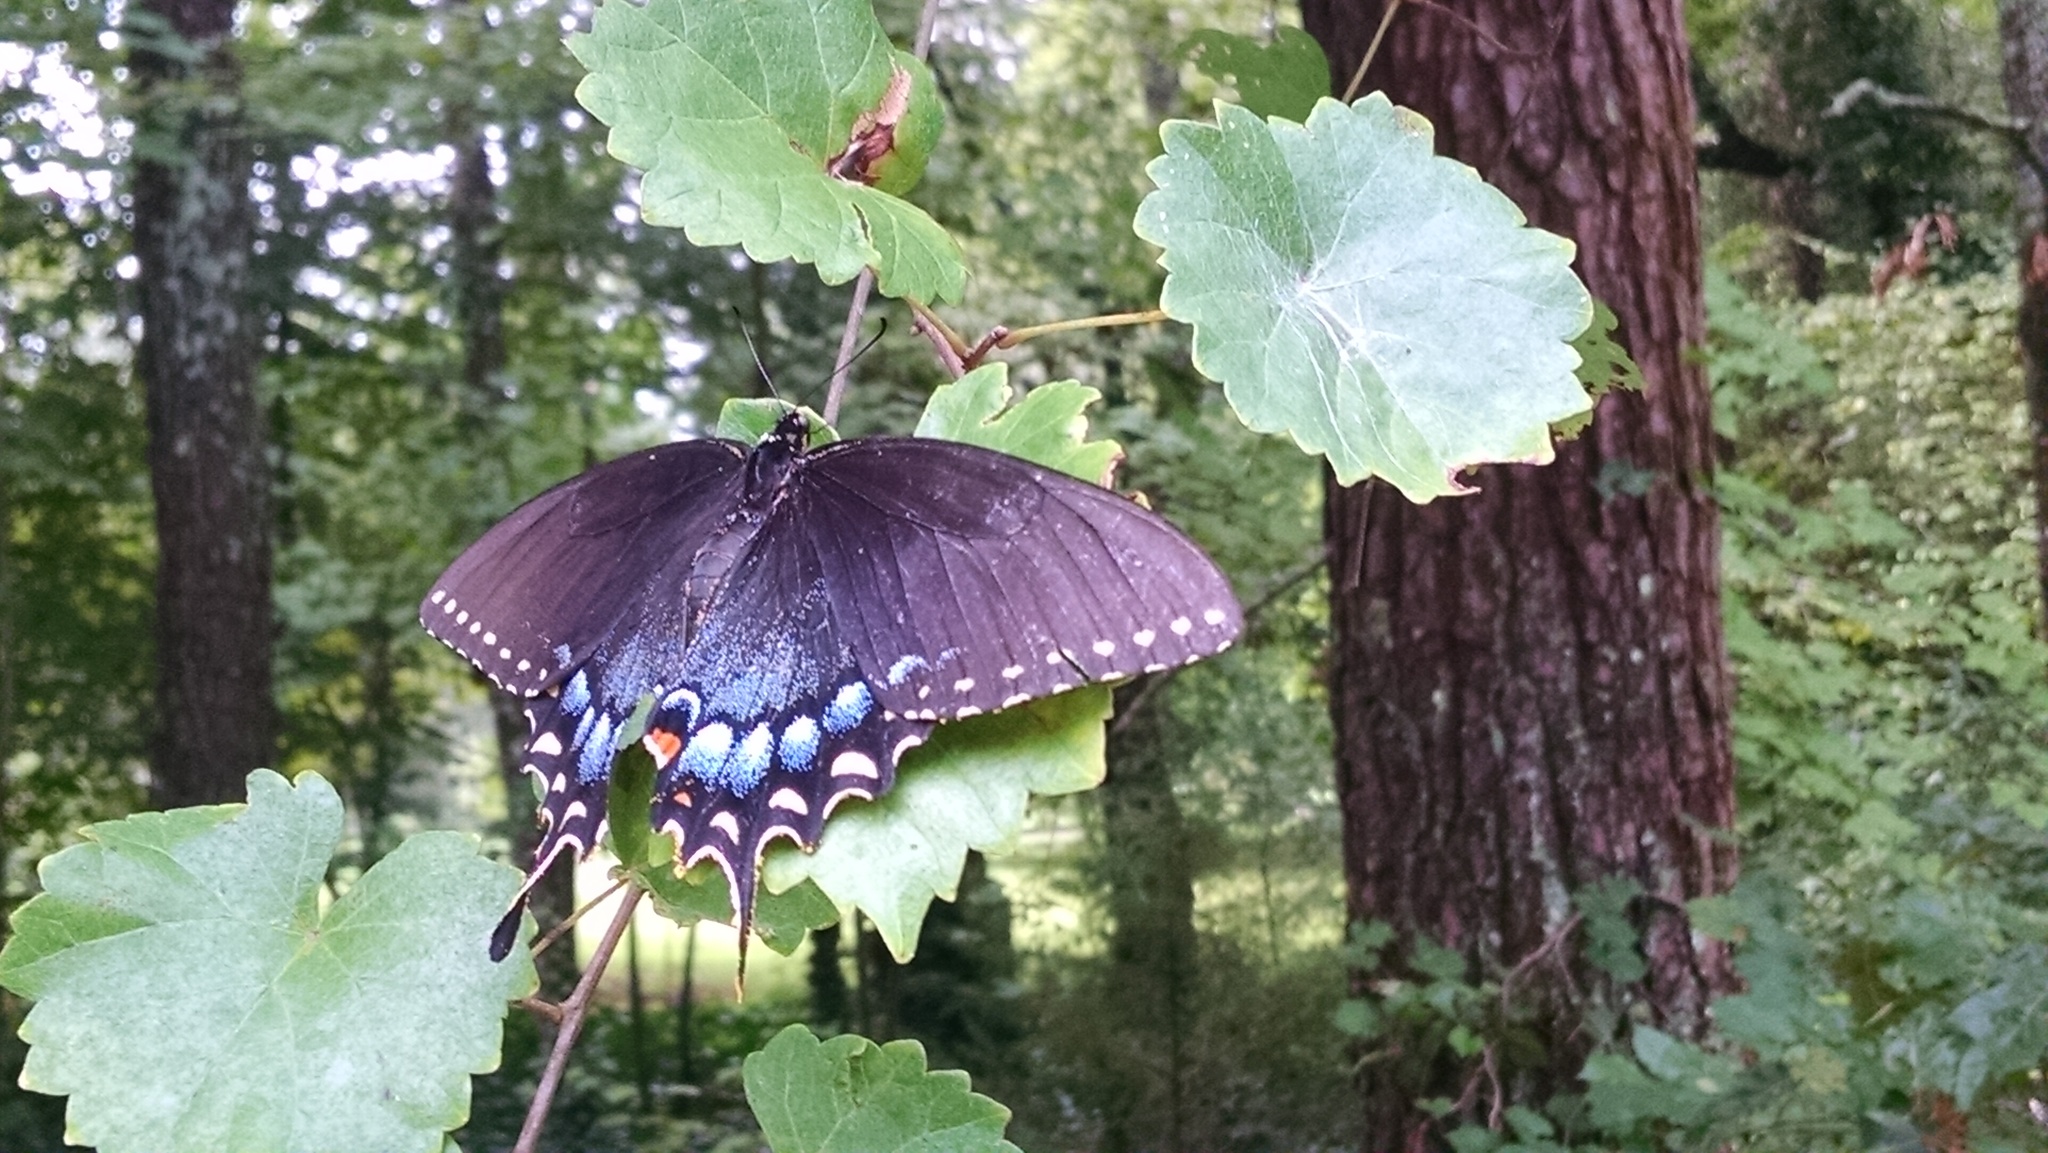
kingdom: Animalia
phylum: Arthropoda
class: Insecta
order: Lepidoptera
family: Papilionidae
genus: Papilio
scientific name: Papilio glaucus
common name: Tiger swallowtail
